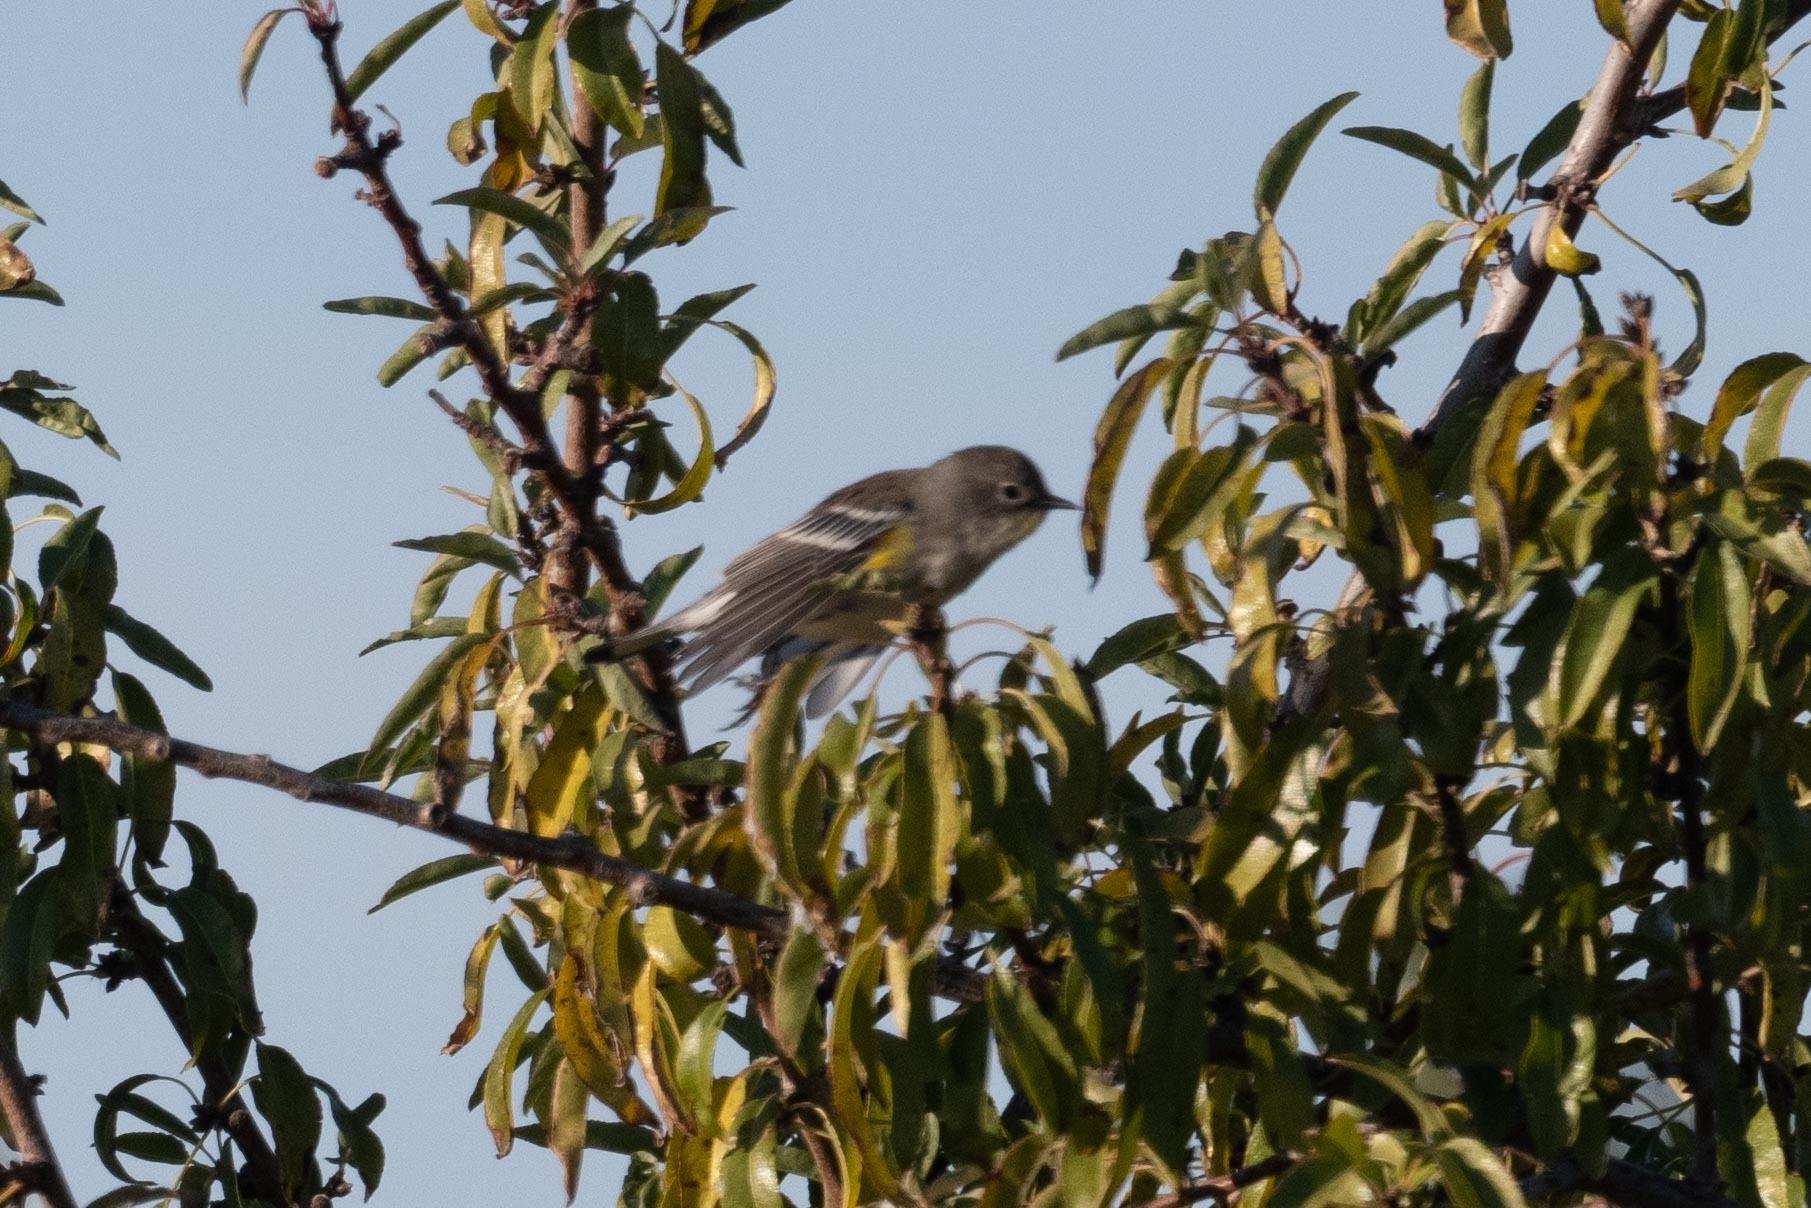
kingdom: Animalia
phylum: Chordata
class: Aves
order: Passeriformes
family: Parulidae
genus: Setophaga
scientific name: Setophaga coronata
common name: Myrtle warbler
